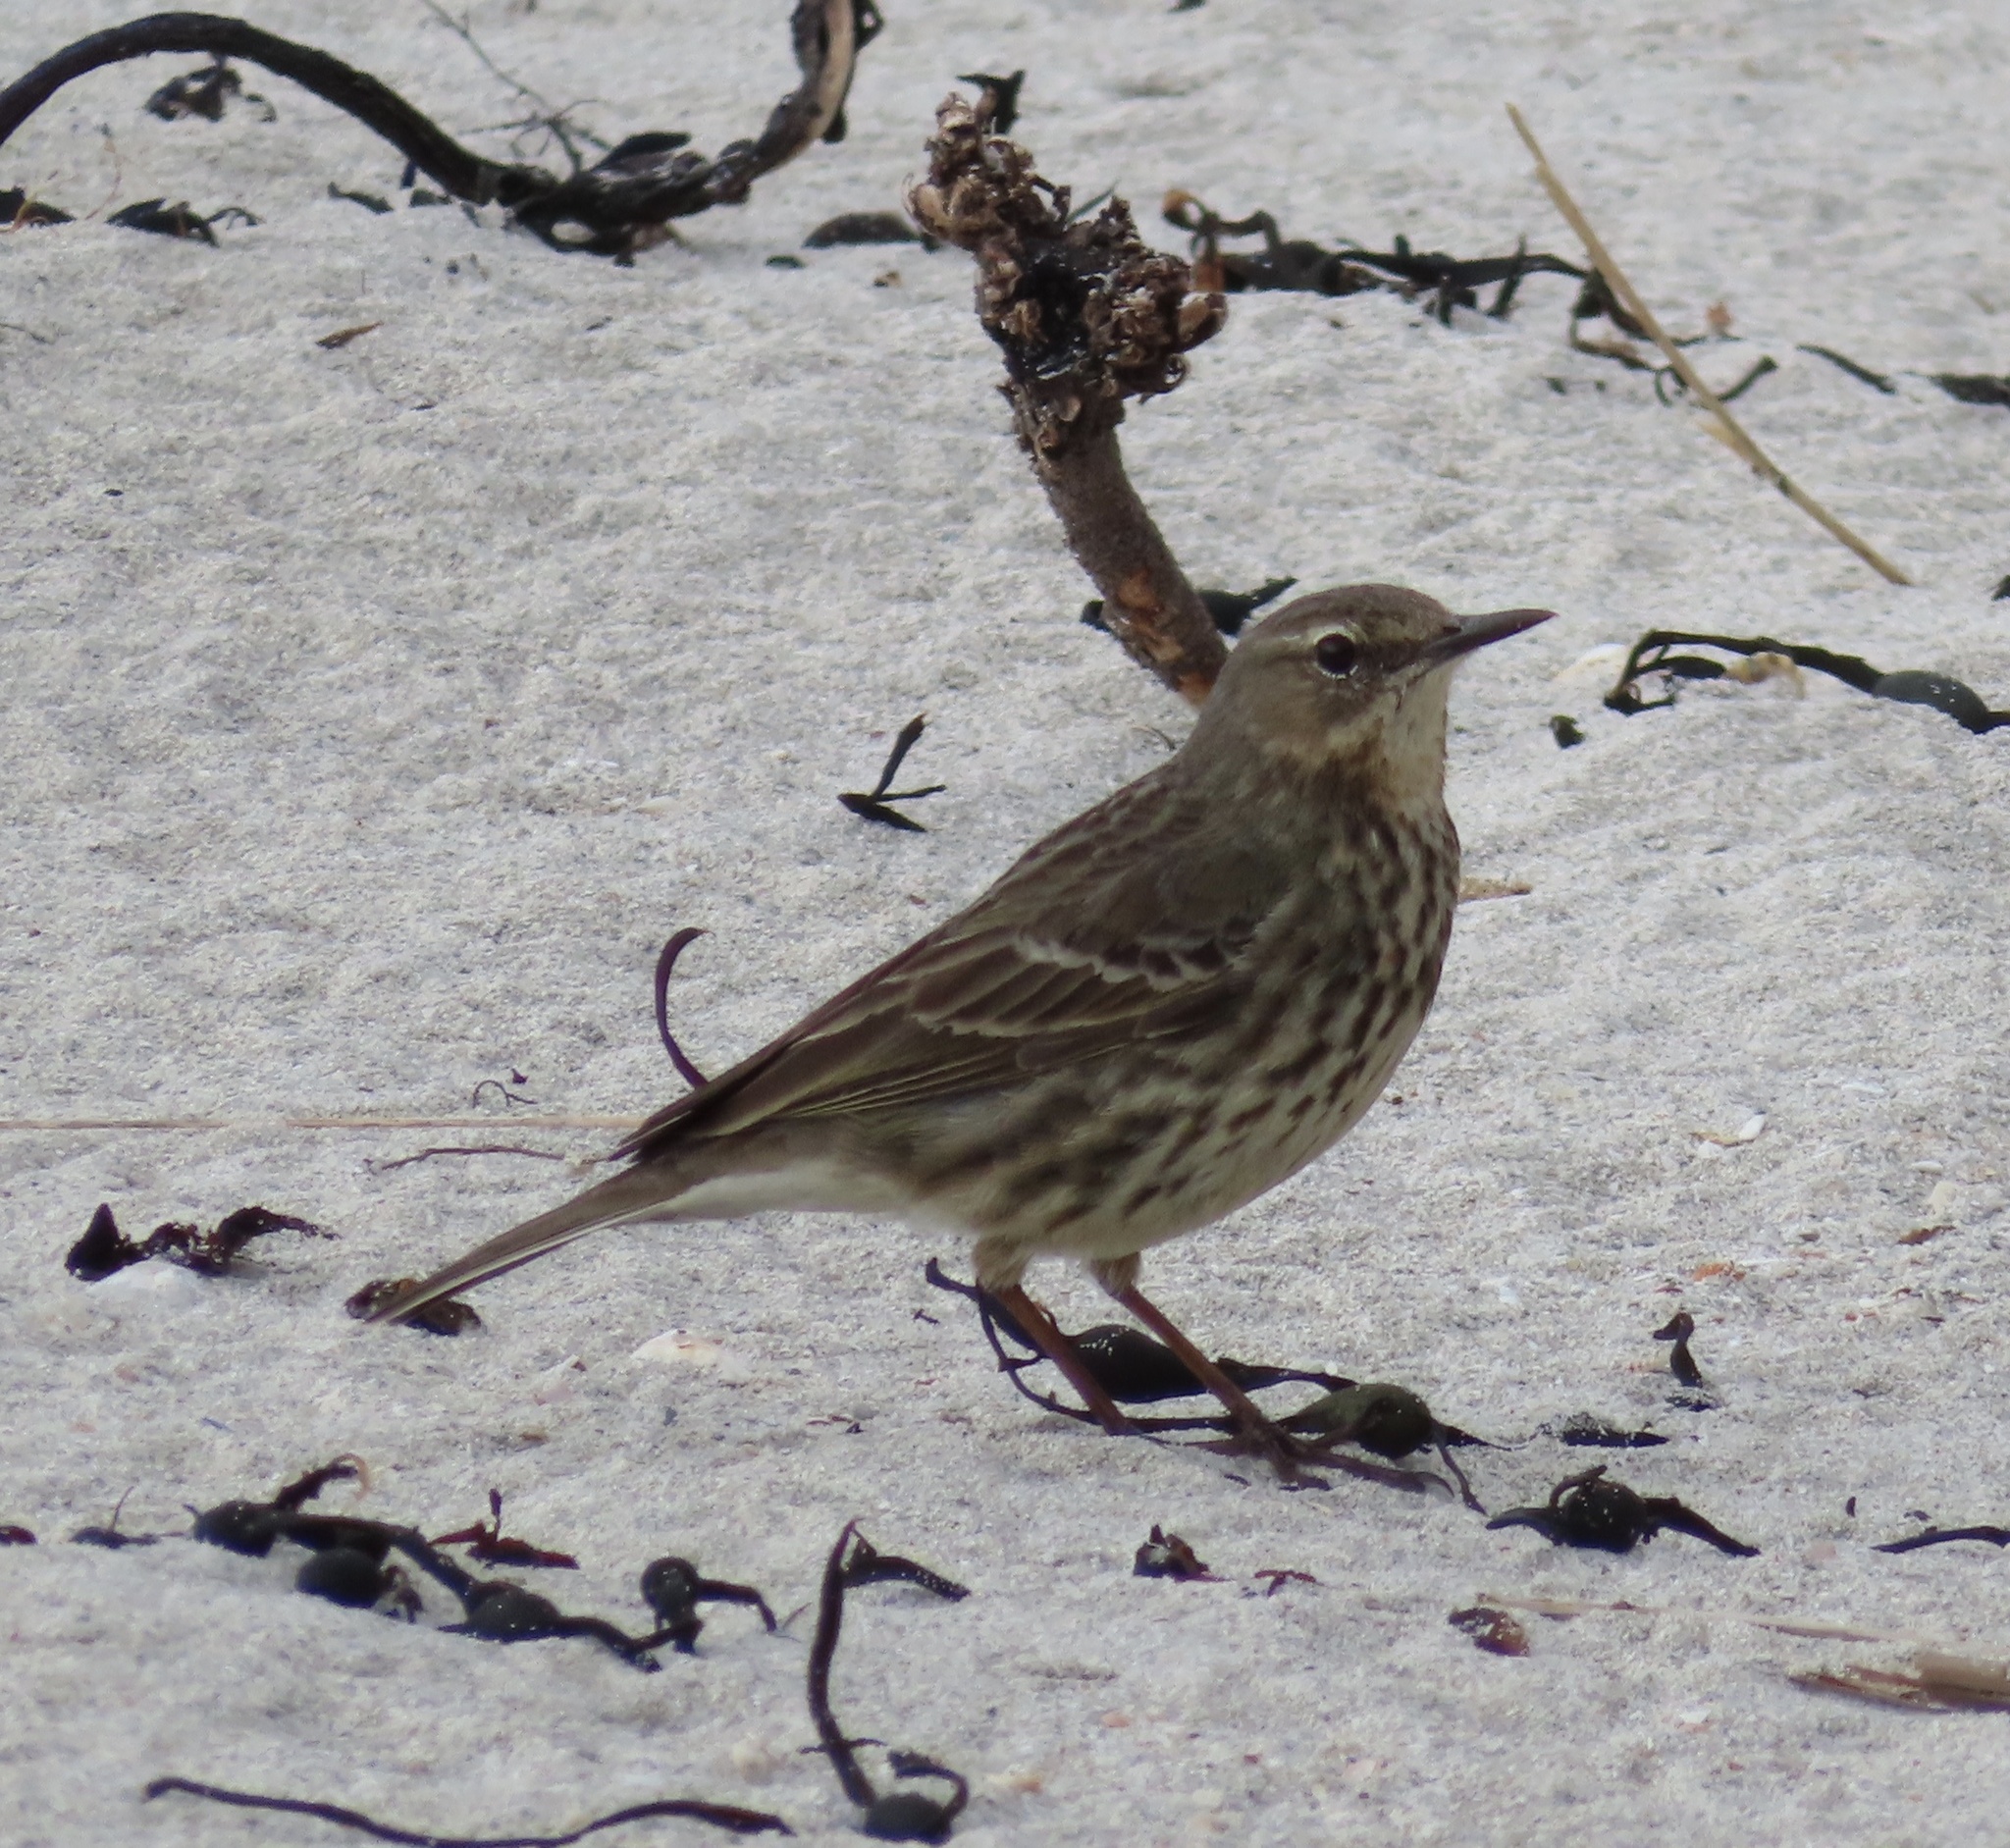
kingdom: Animalia
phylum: Chordata
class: Aves
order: Passeriformes
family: Motacillidae
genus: Anthus
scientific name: Anthus petrosus
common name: Eurasian rock pipit
